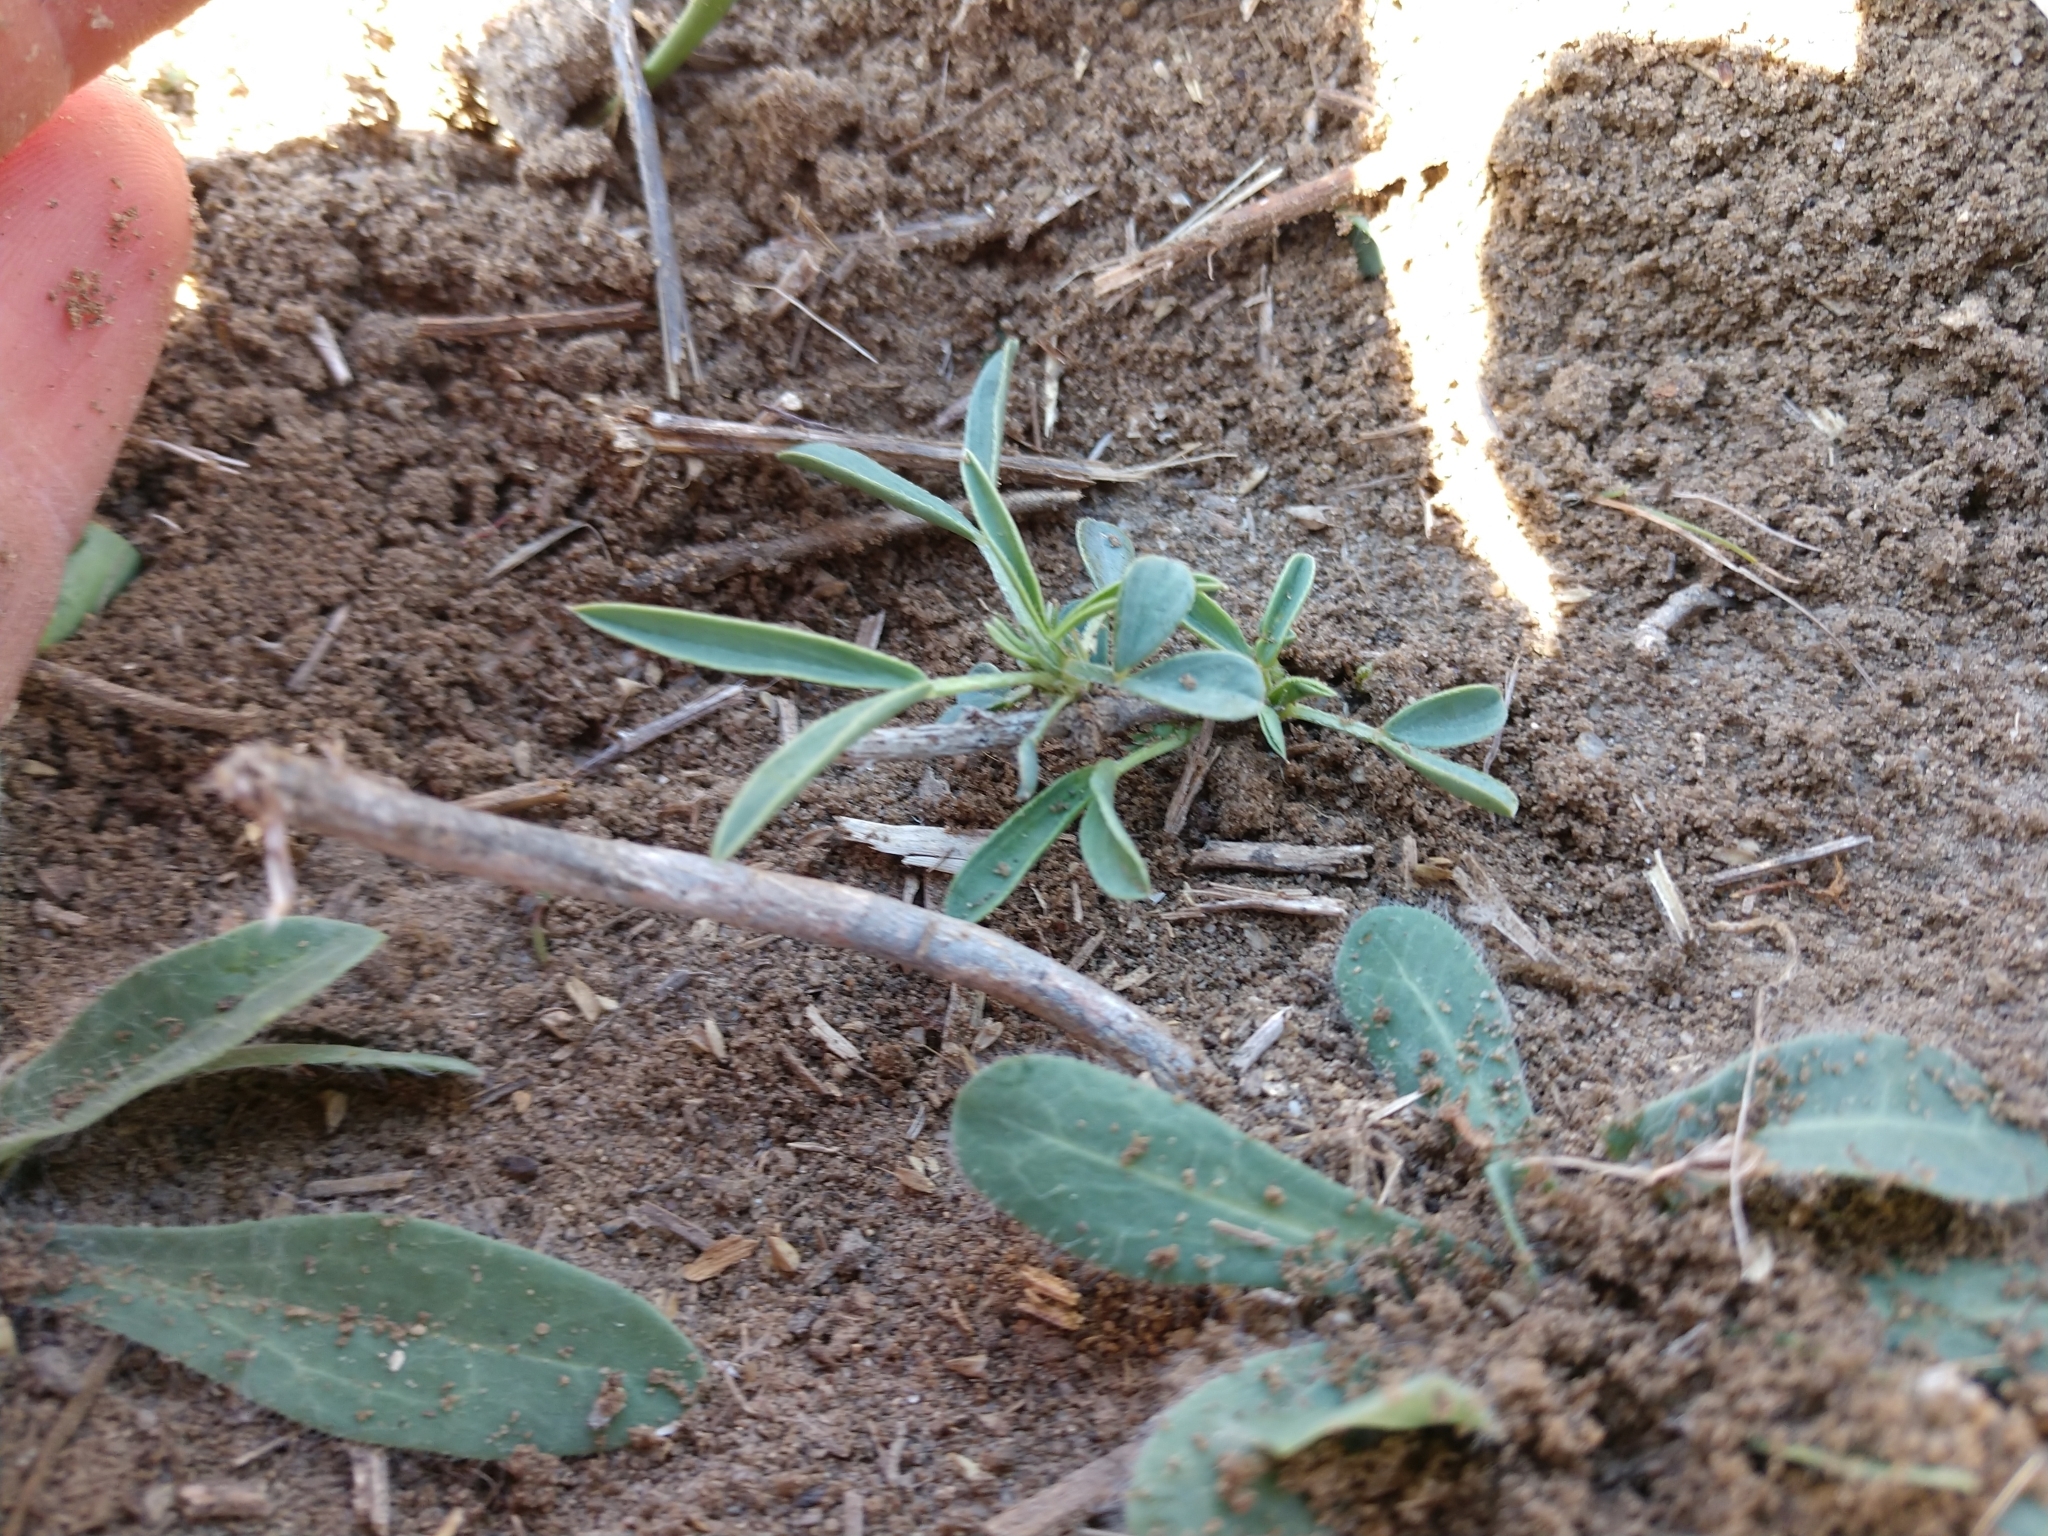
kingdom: Plantae
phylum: Tracheophyta
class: Magnoliopsida
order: Fabales
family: Fabaceae
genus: Senna
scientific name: Senna pumilio
